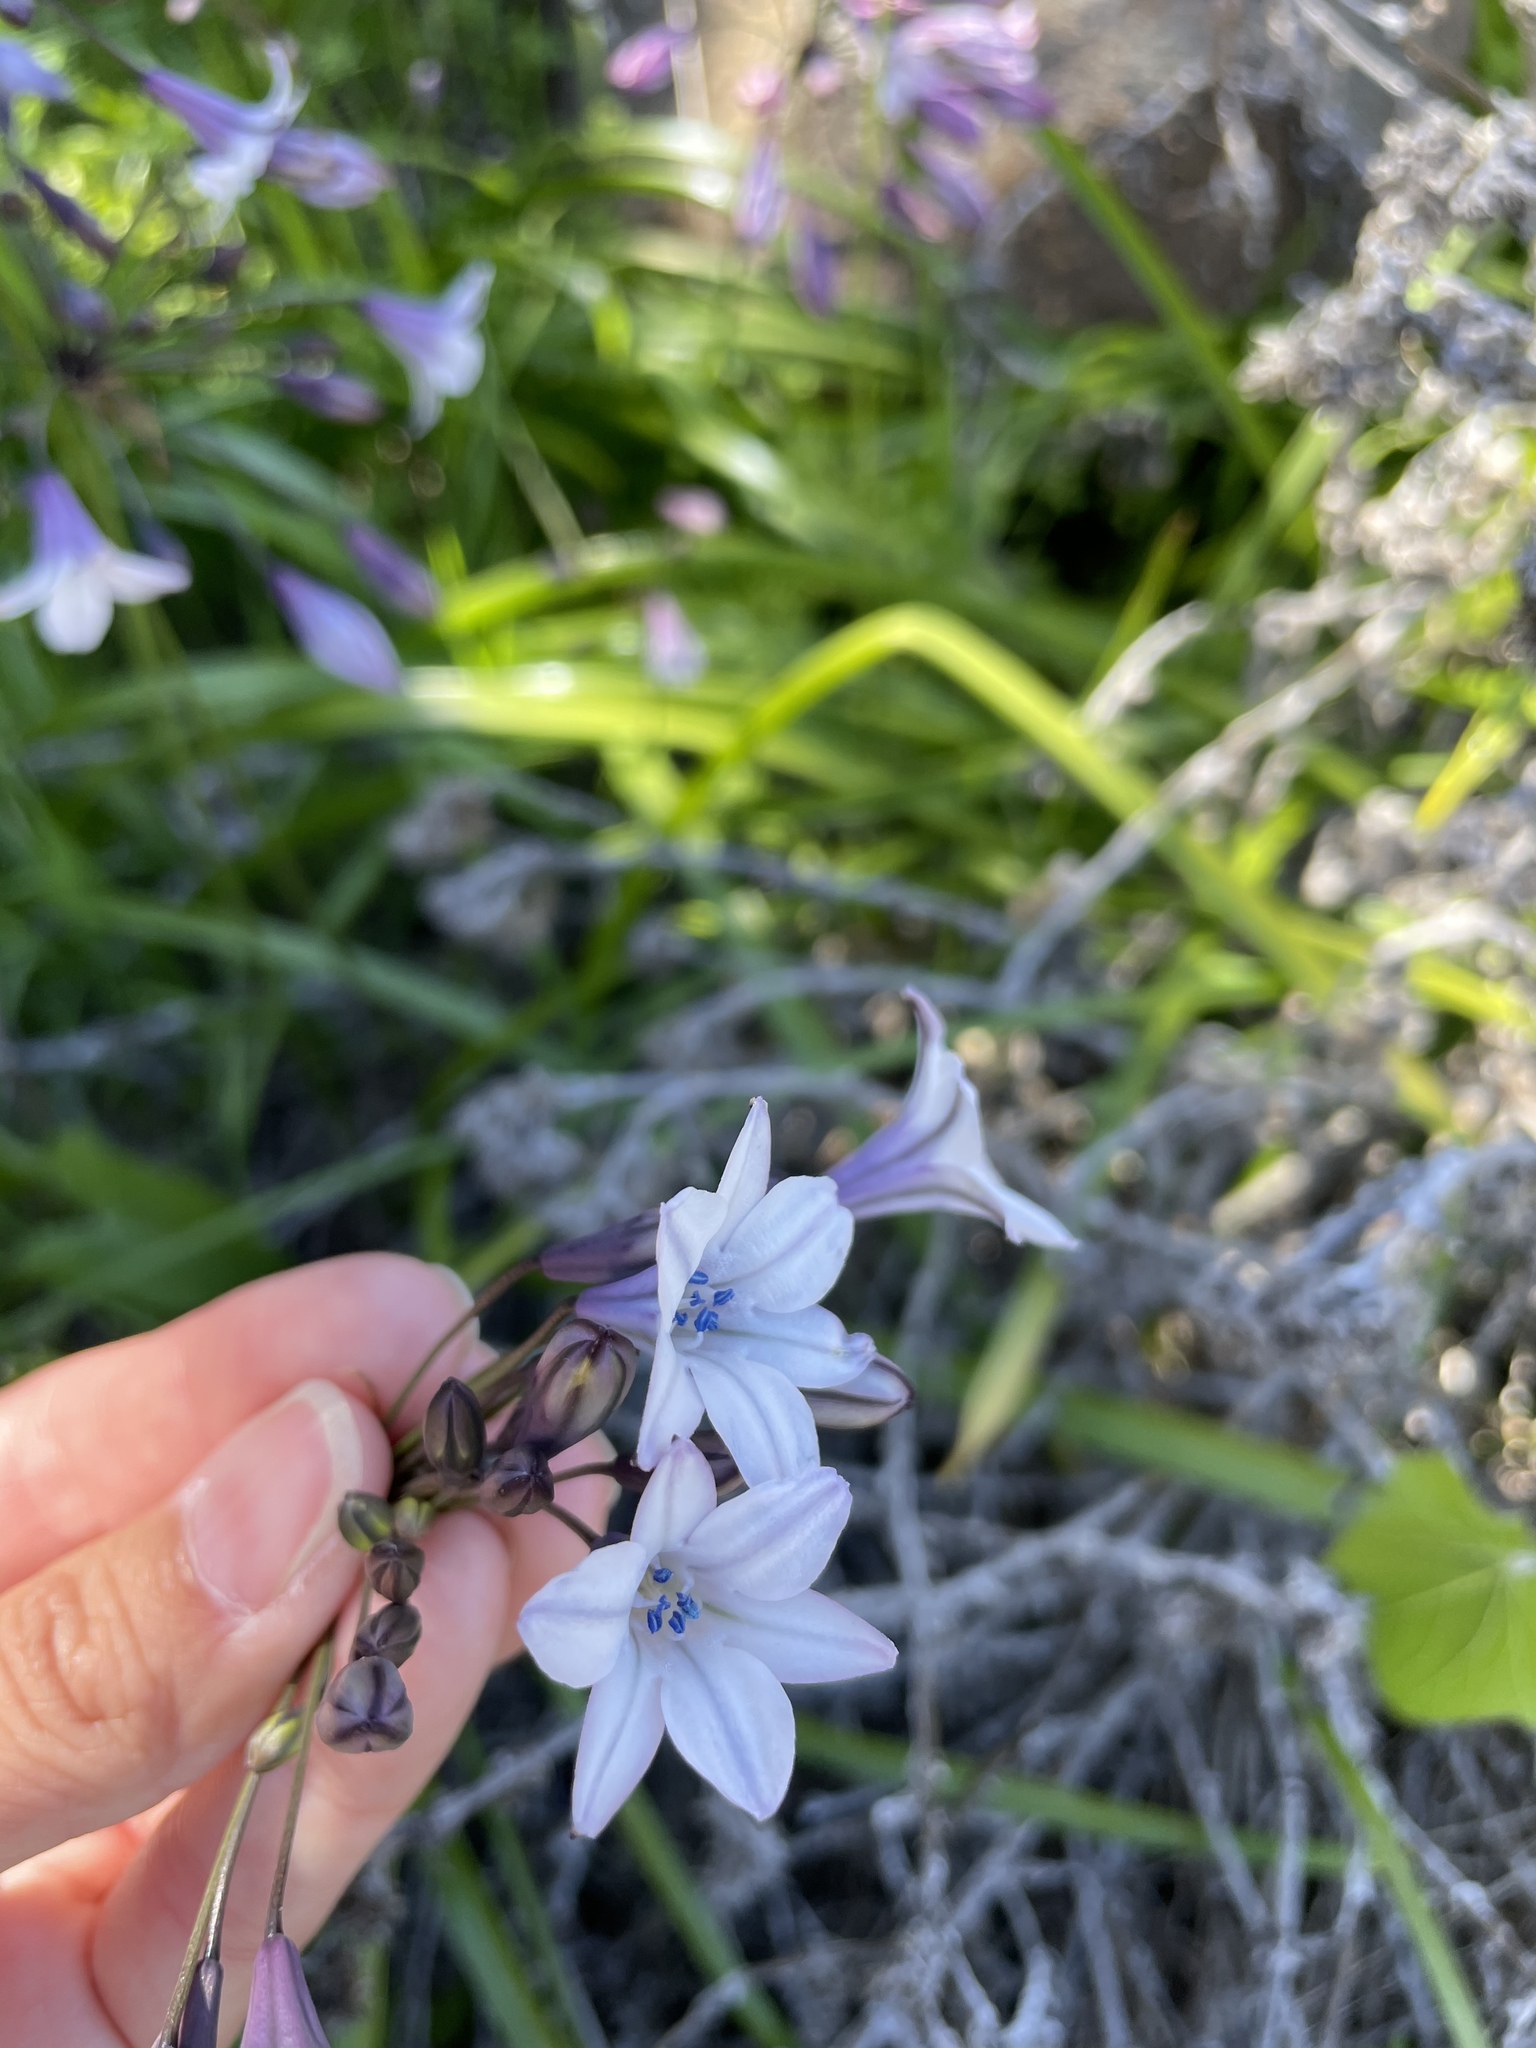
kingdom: Plantae
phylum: Tracheophyta
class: Liliopsida
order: Asparagales
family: Asparagaceae
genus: Triteleia
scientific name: Triteleia clementina
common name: San clemente island triteleia
